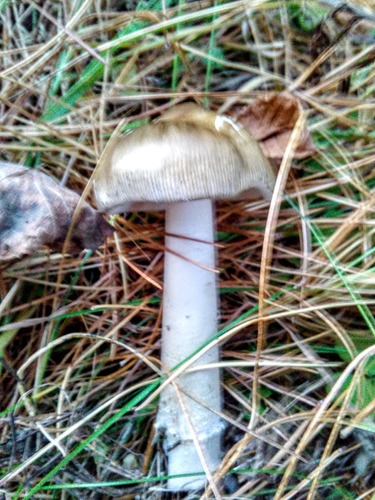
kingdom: Fungi
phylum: Basidiomycota
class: Agaricomycetes
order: Agaricales
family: Amanitaceae
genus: Amanita
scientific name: Amanita
